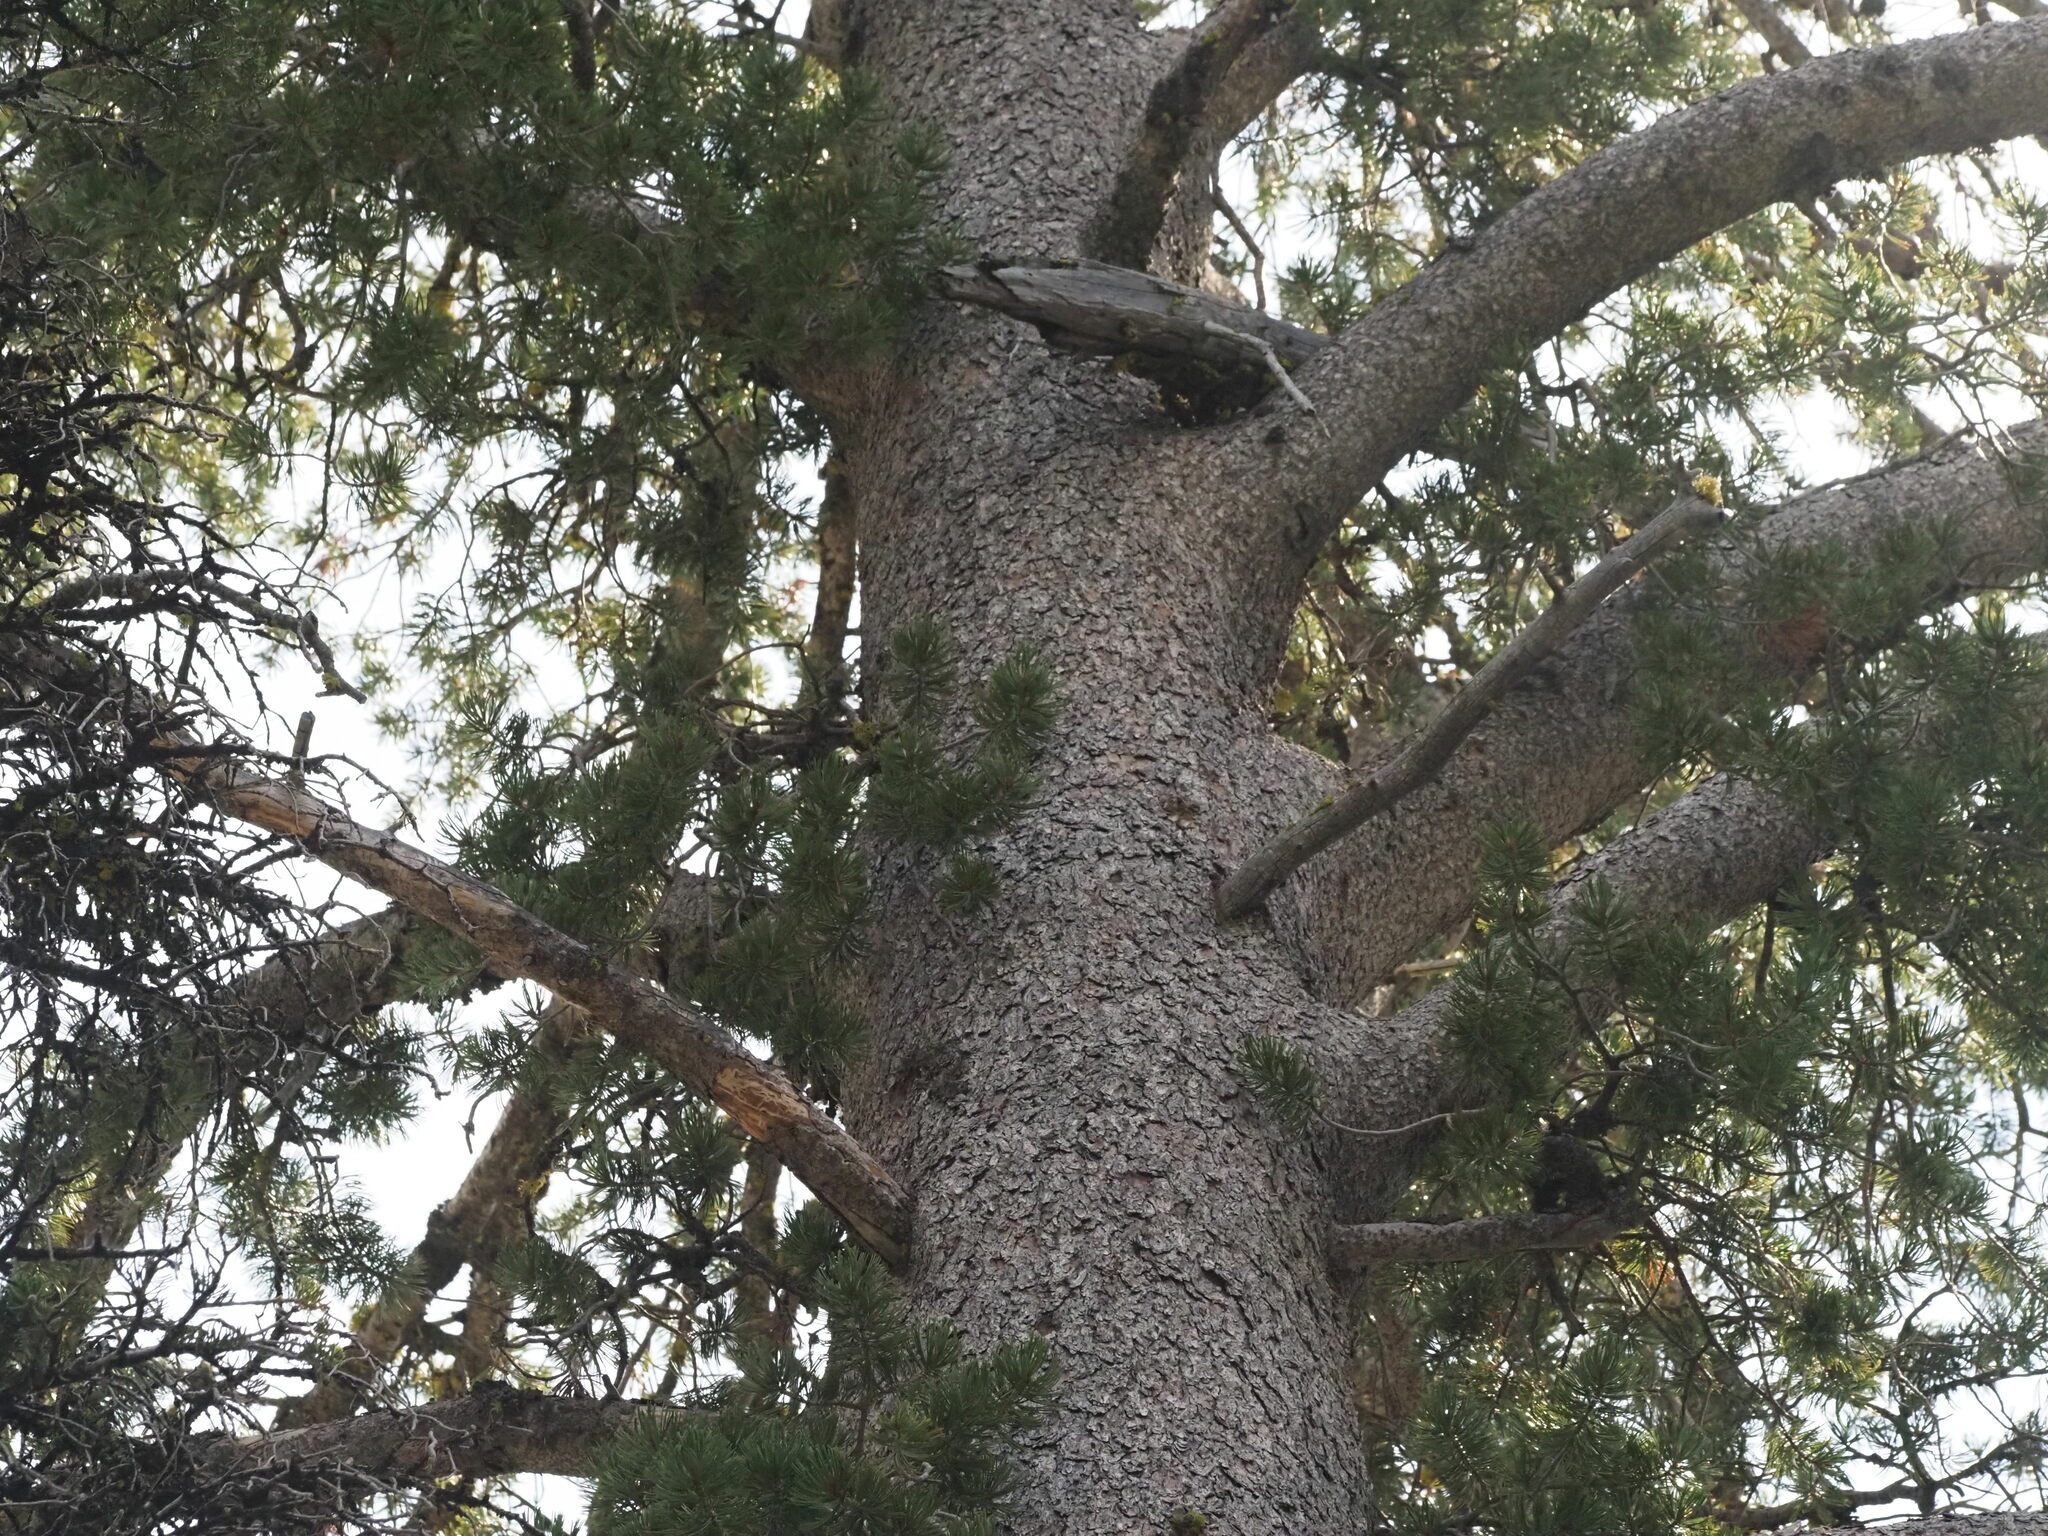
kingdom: Plantae
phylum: Tracheophyta
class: Pinopsida
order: Pinales
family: Pinaceae
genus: Pinus
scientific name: Pinus albicaulis
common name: Whitebark pine
